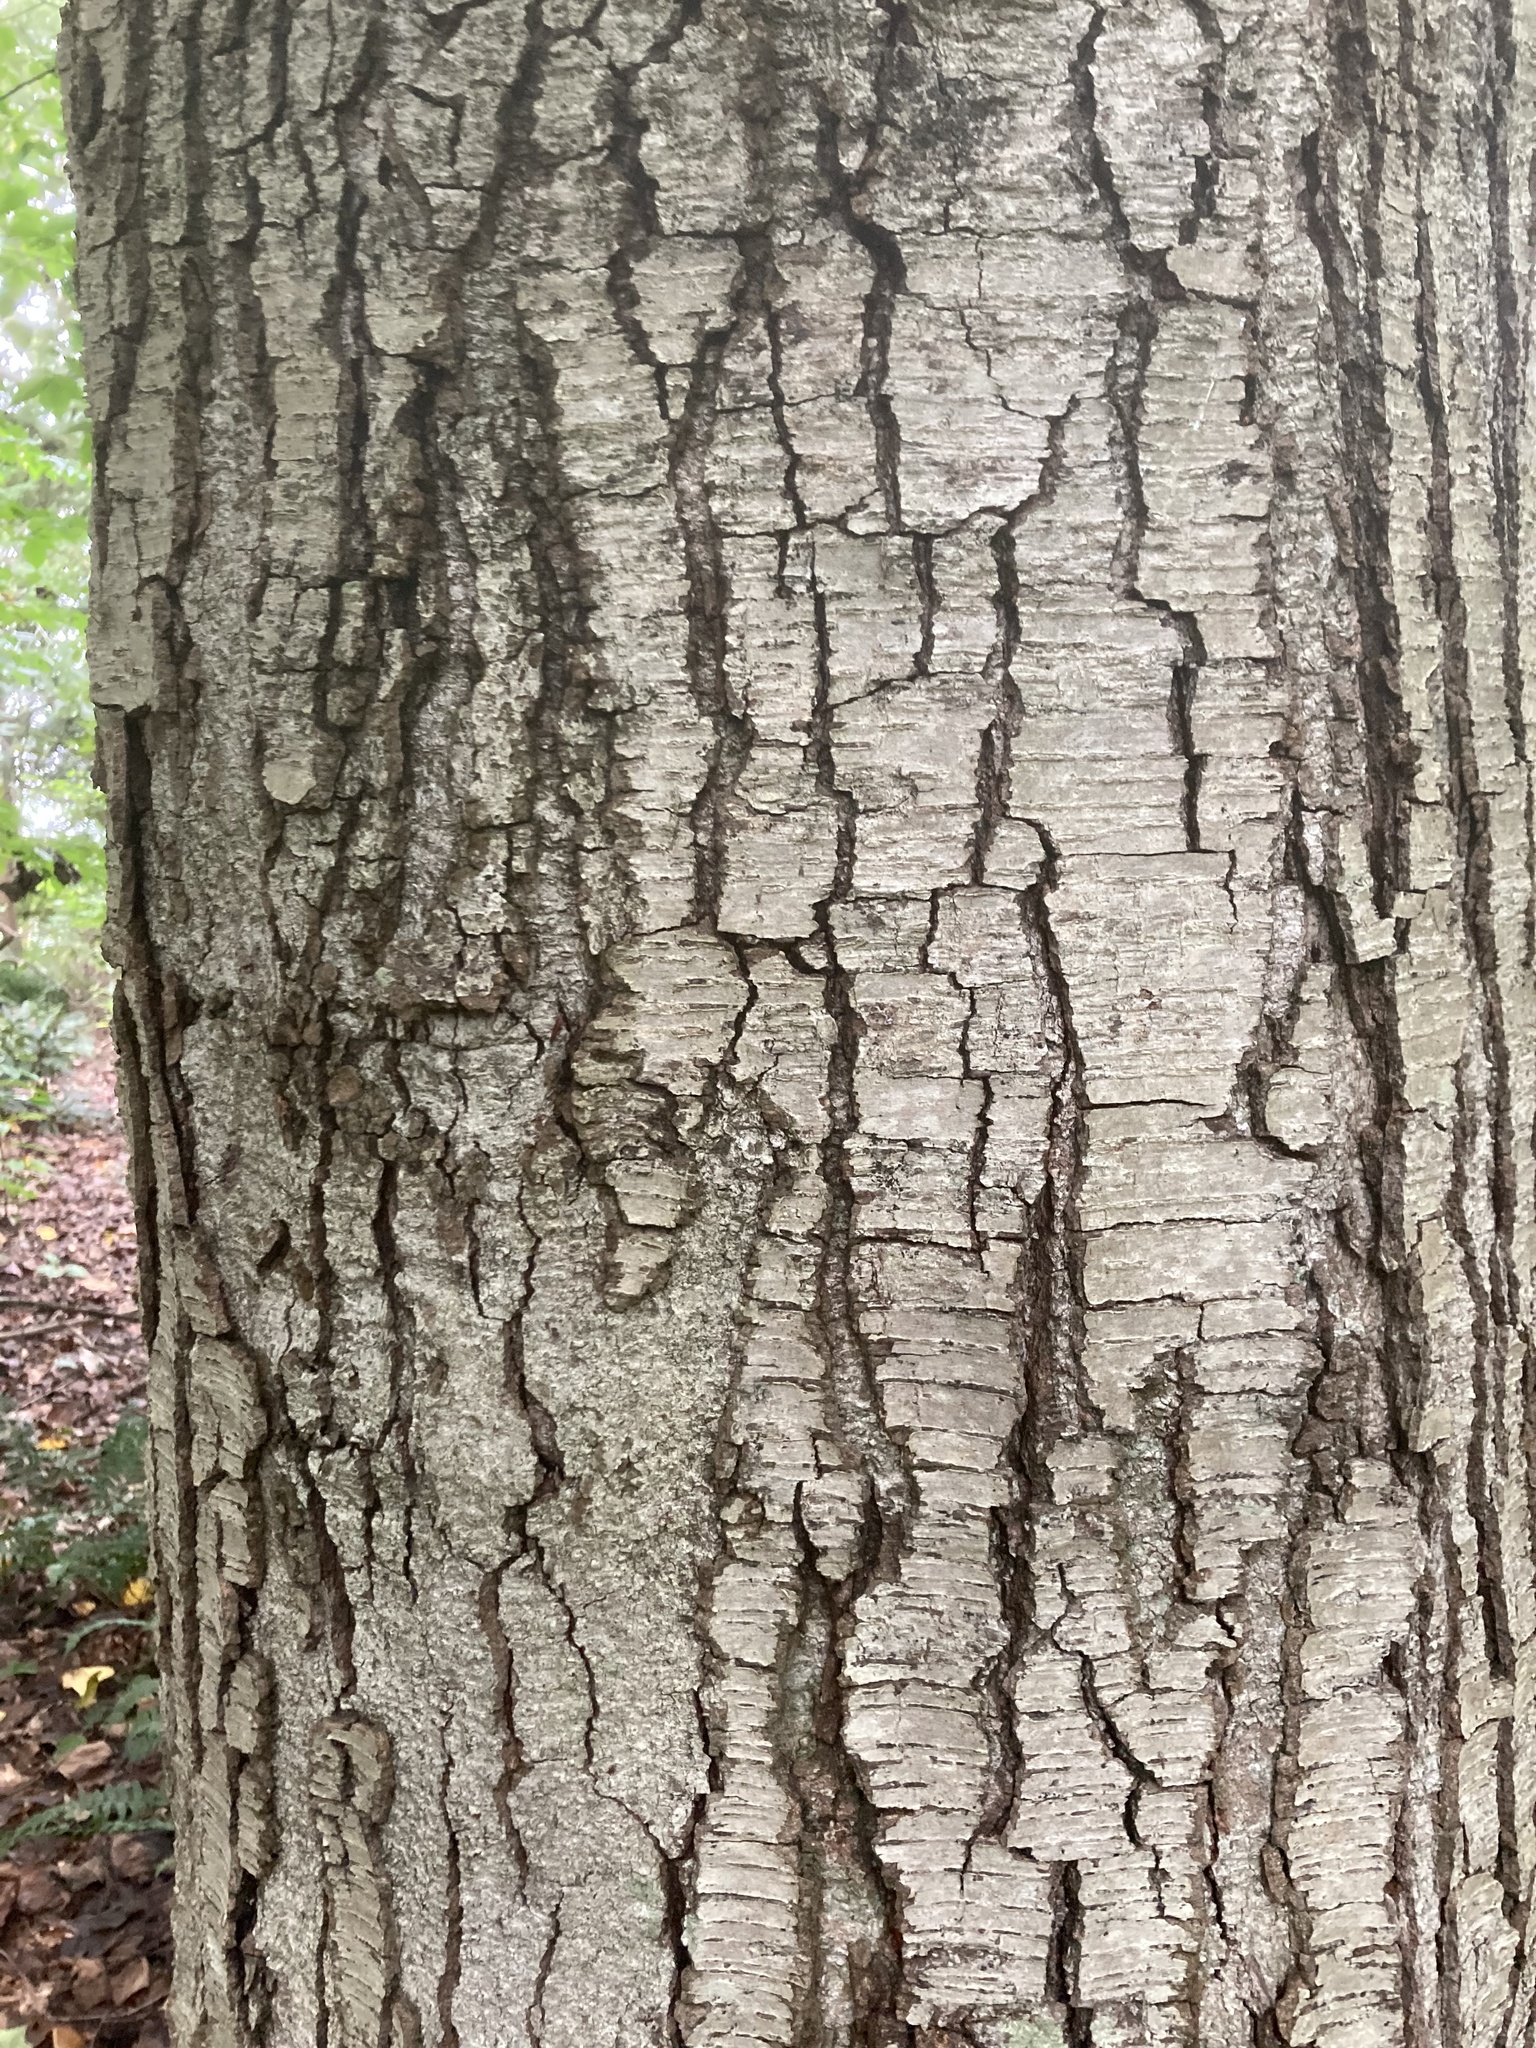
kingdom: Plantae
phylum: Tracheophyta
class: Magnoliopsida
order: Fagales
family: Betulaceae
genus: Betula
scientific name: Betula lenta
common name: Black birch
